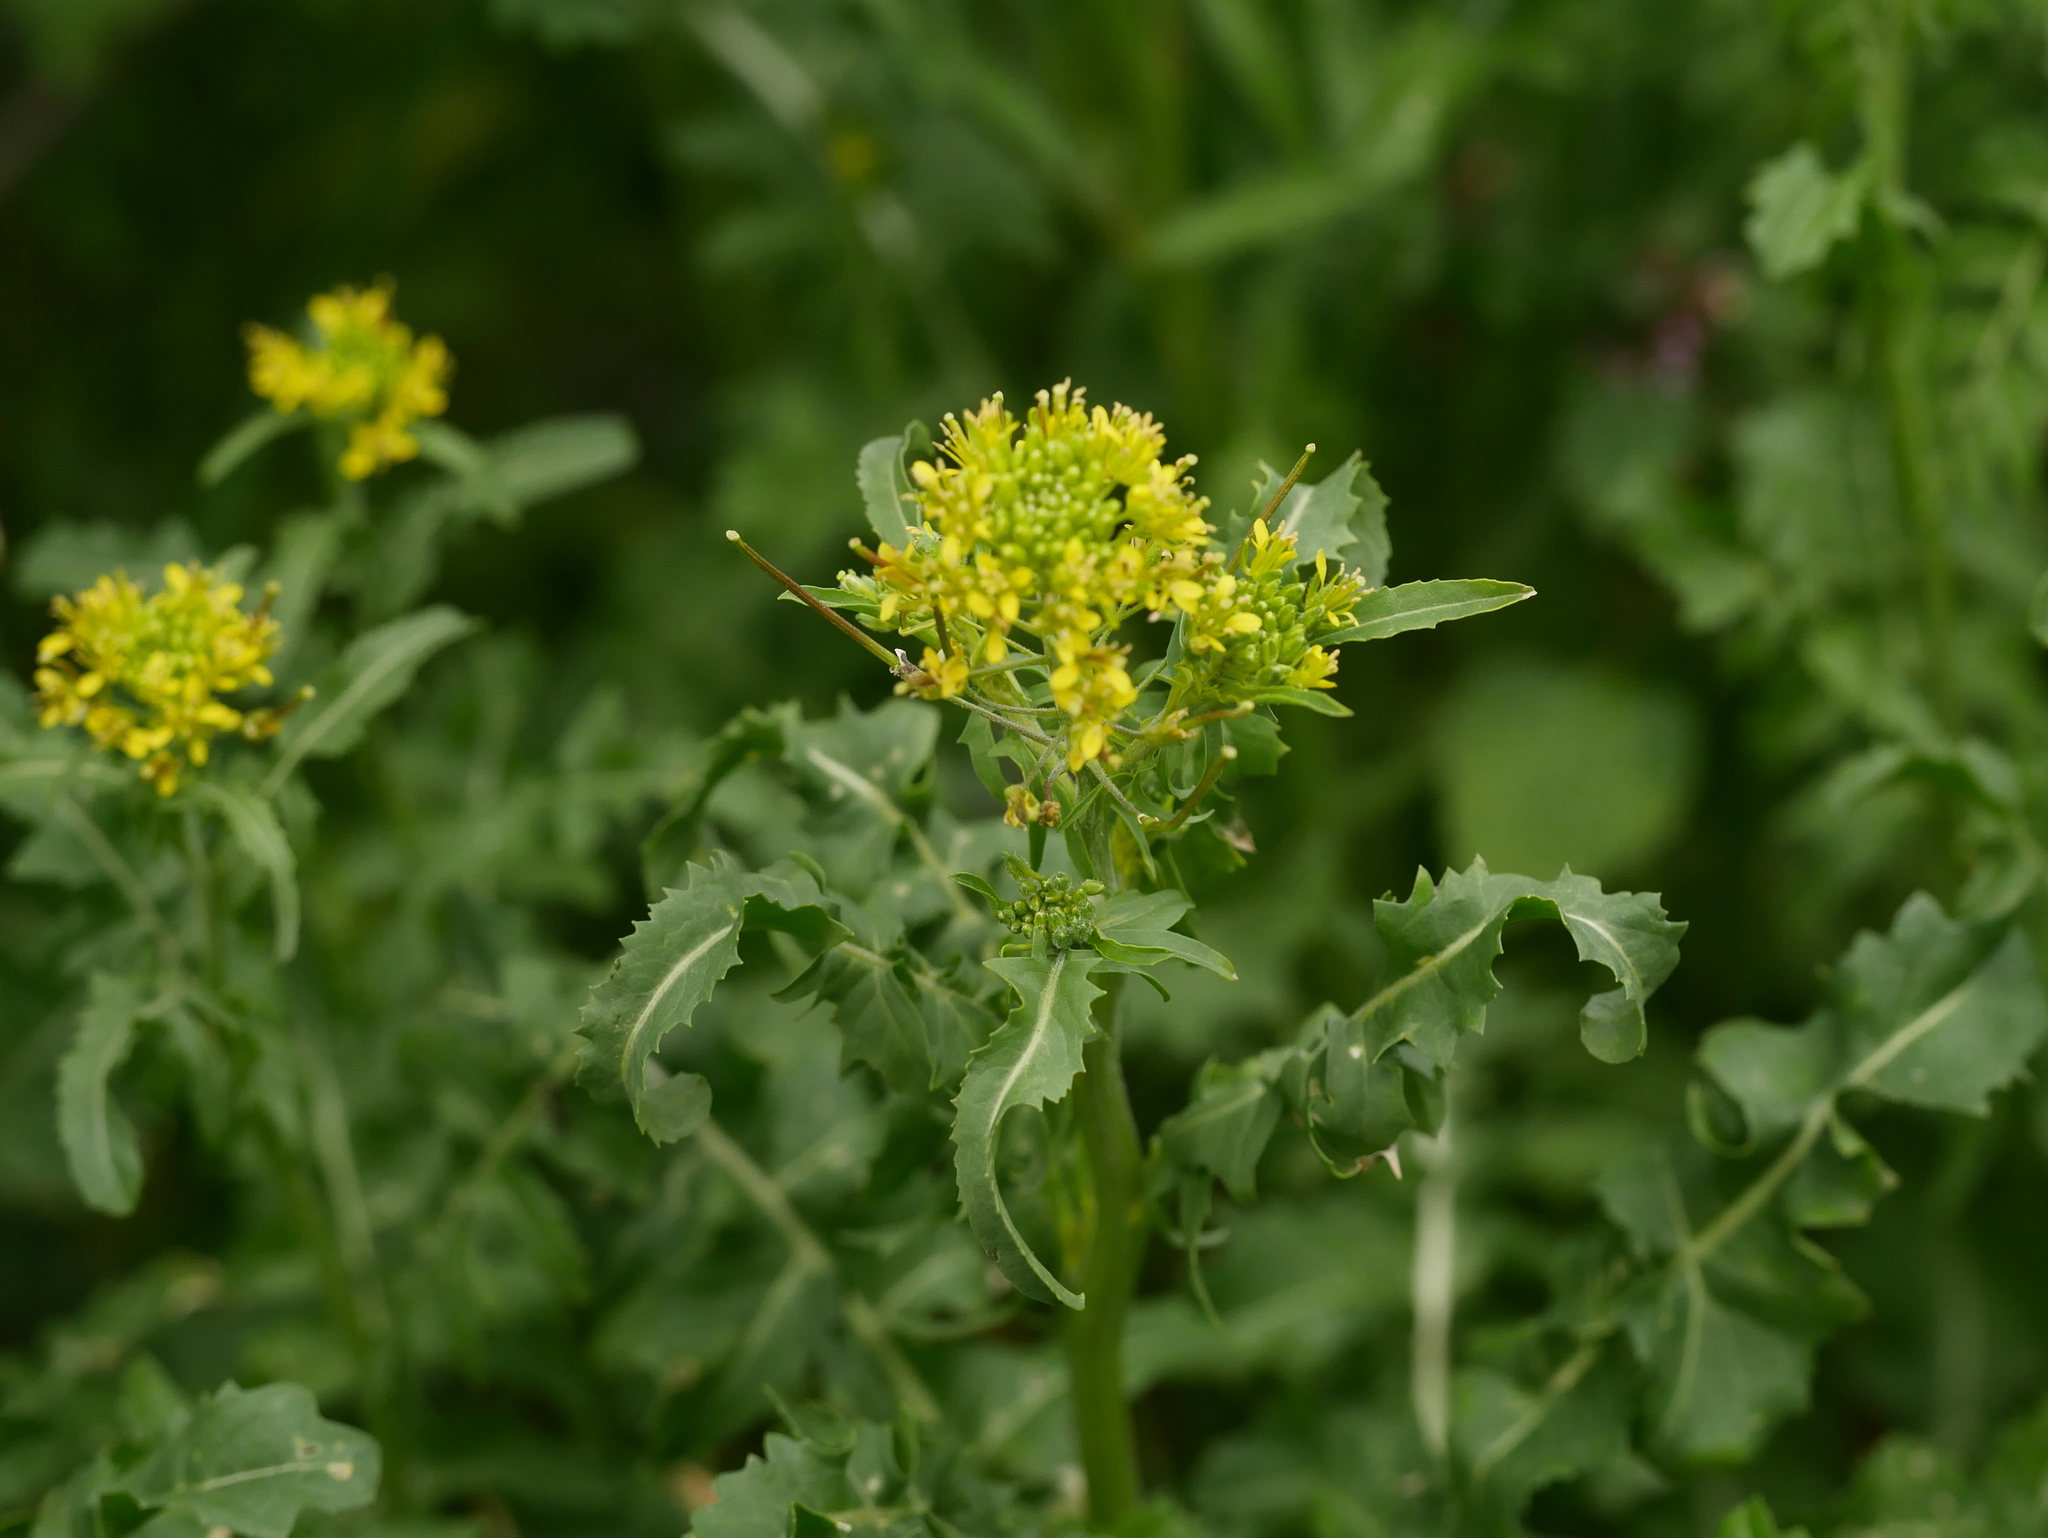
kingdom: Plantae
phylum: Tracheophyta
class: Magnoliopsida
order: Brassicales
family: Brassicaceae
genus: Sisymbrium
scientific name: Sisymbrium loeselii
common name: False london-rocket
